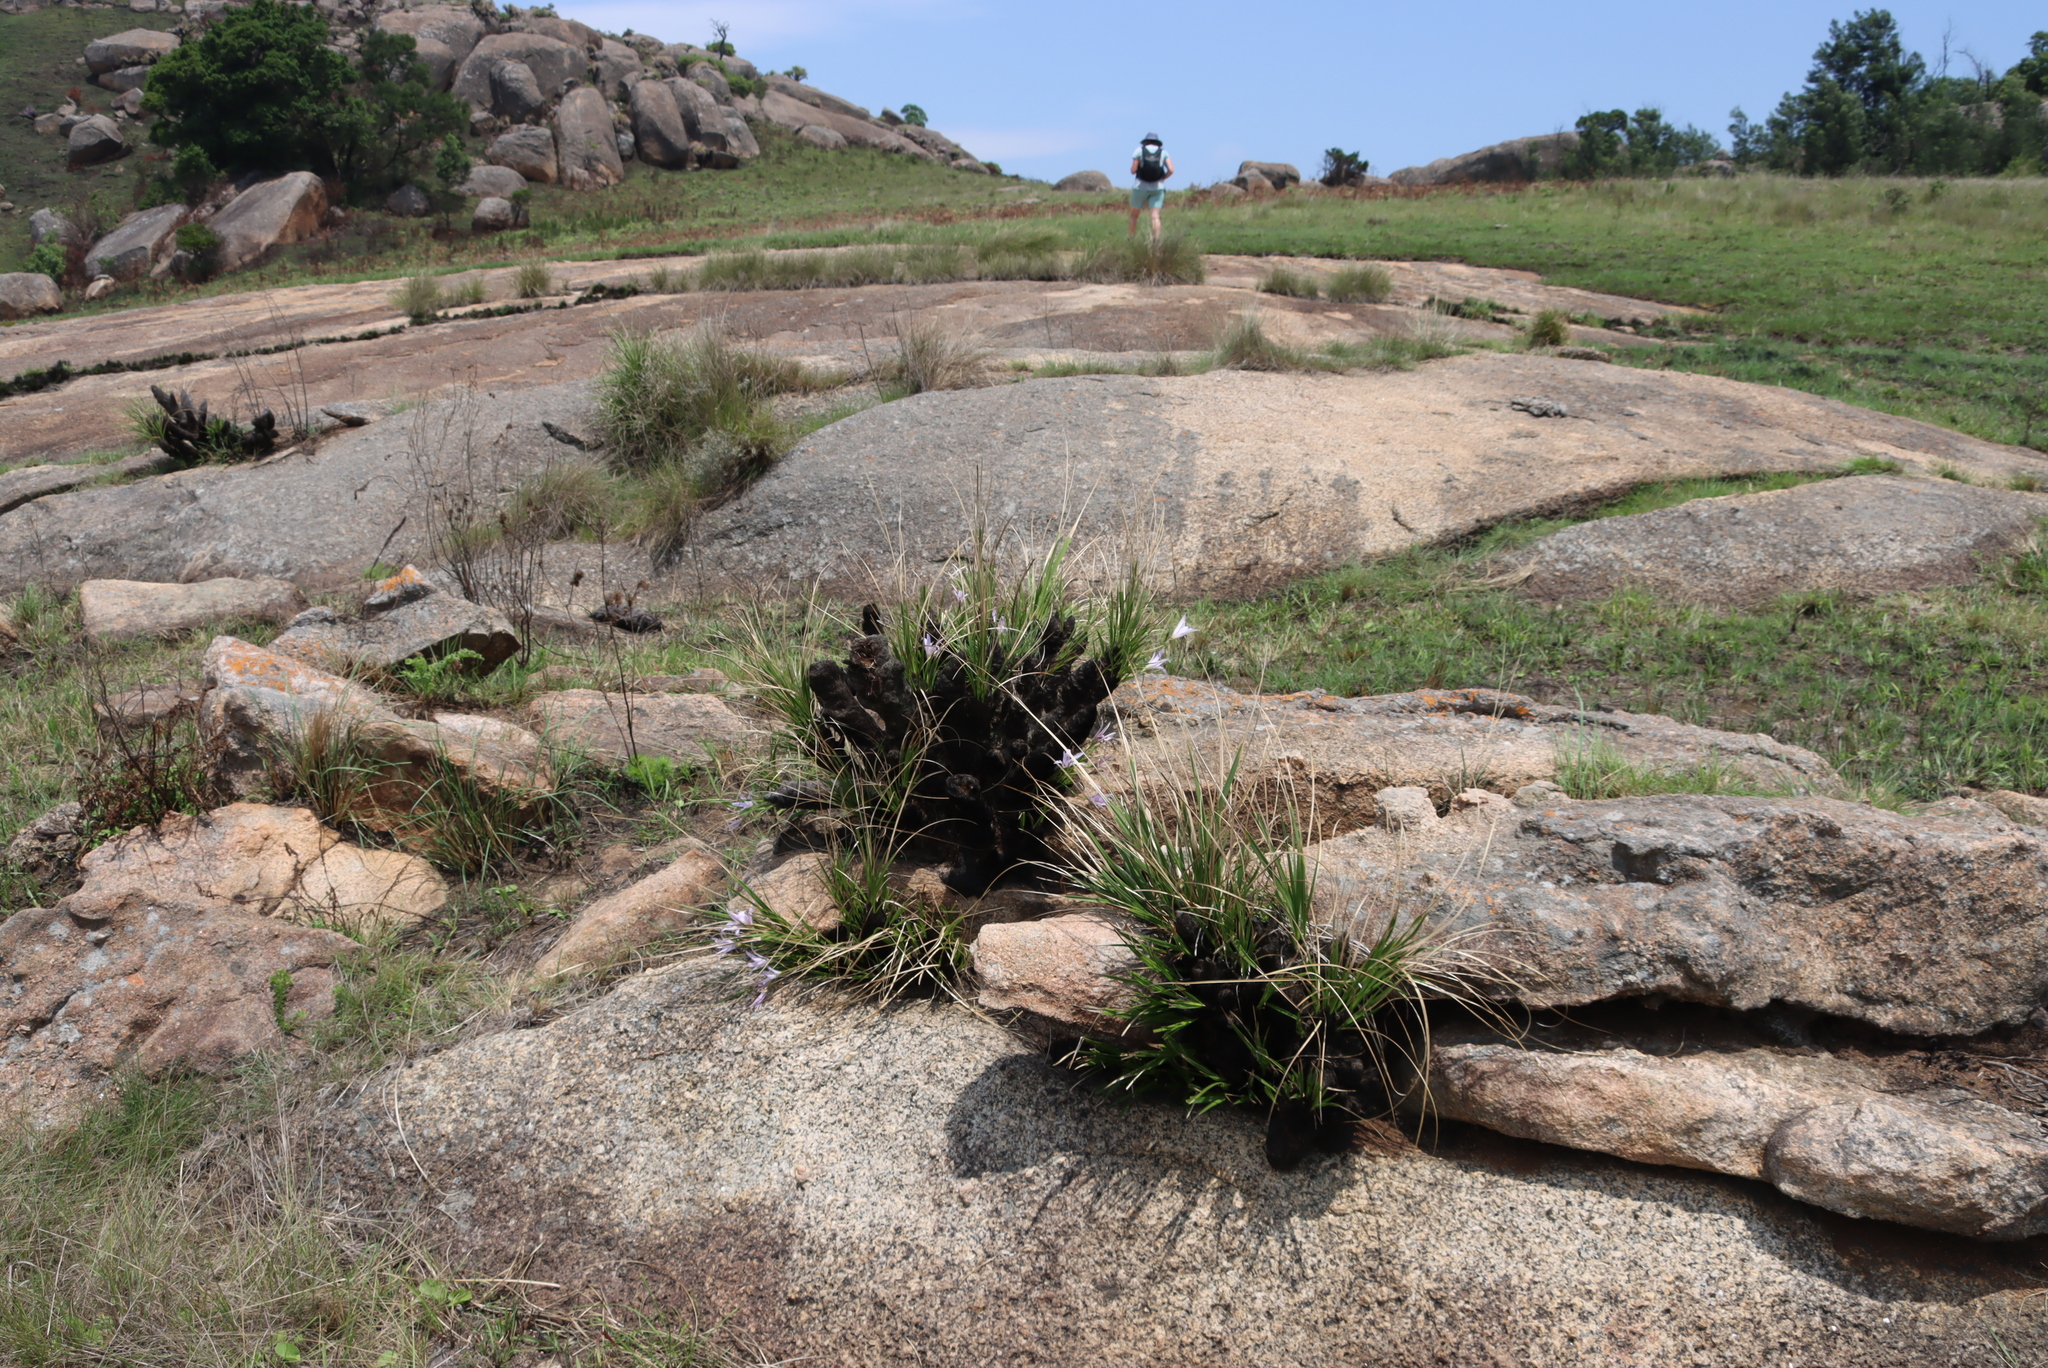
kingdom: Plantae
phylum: Tracheophyta
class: Liliopsida
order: Pandanales
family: Velloziaceae
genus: Xerophyta
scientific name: Xerophyta retinervis
